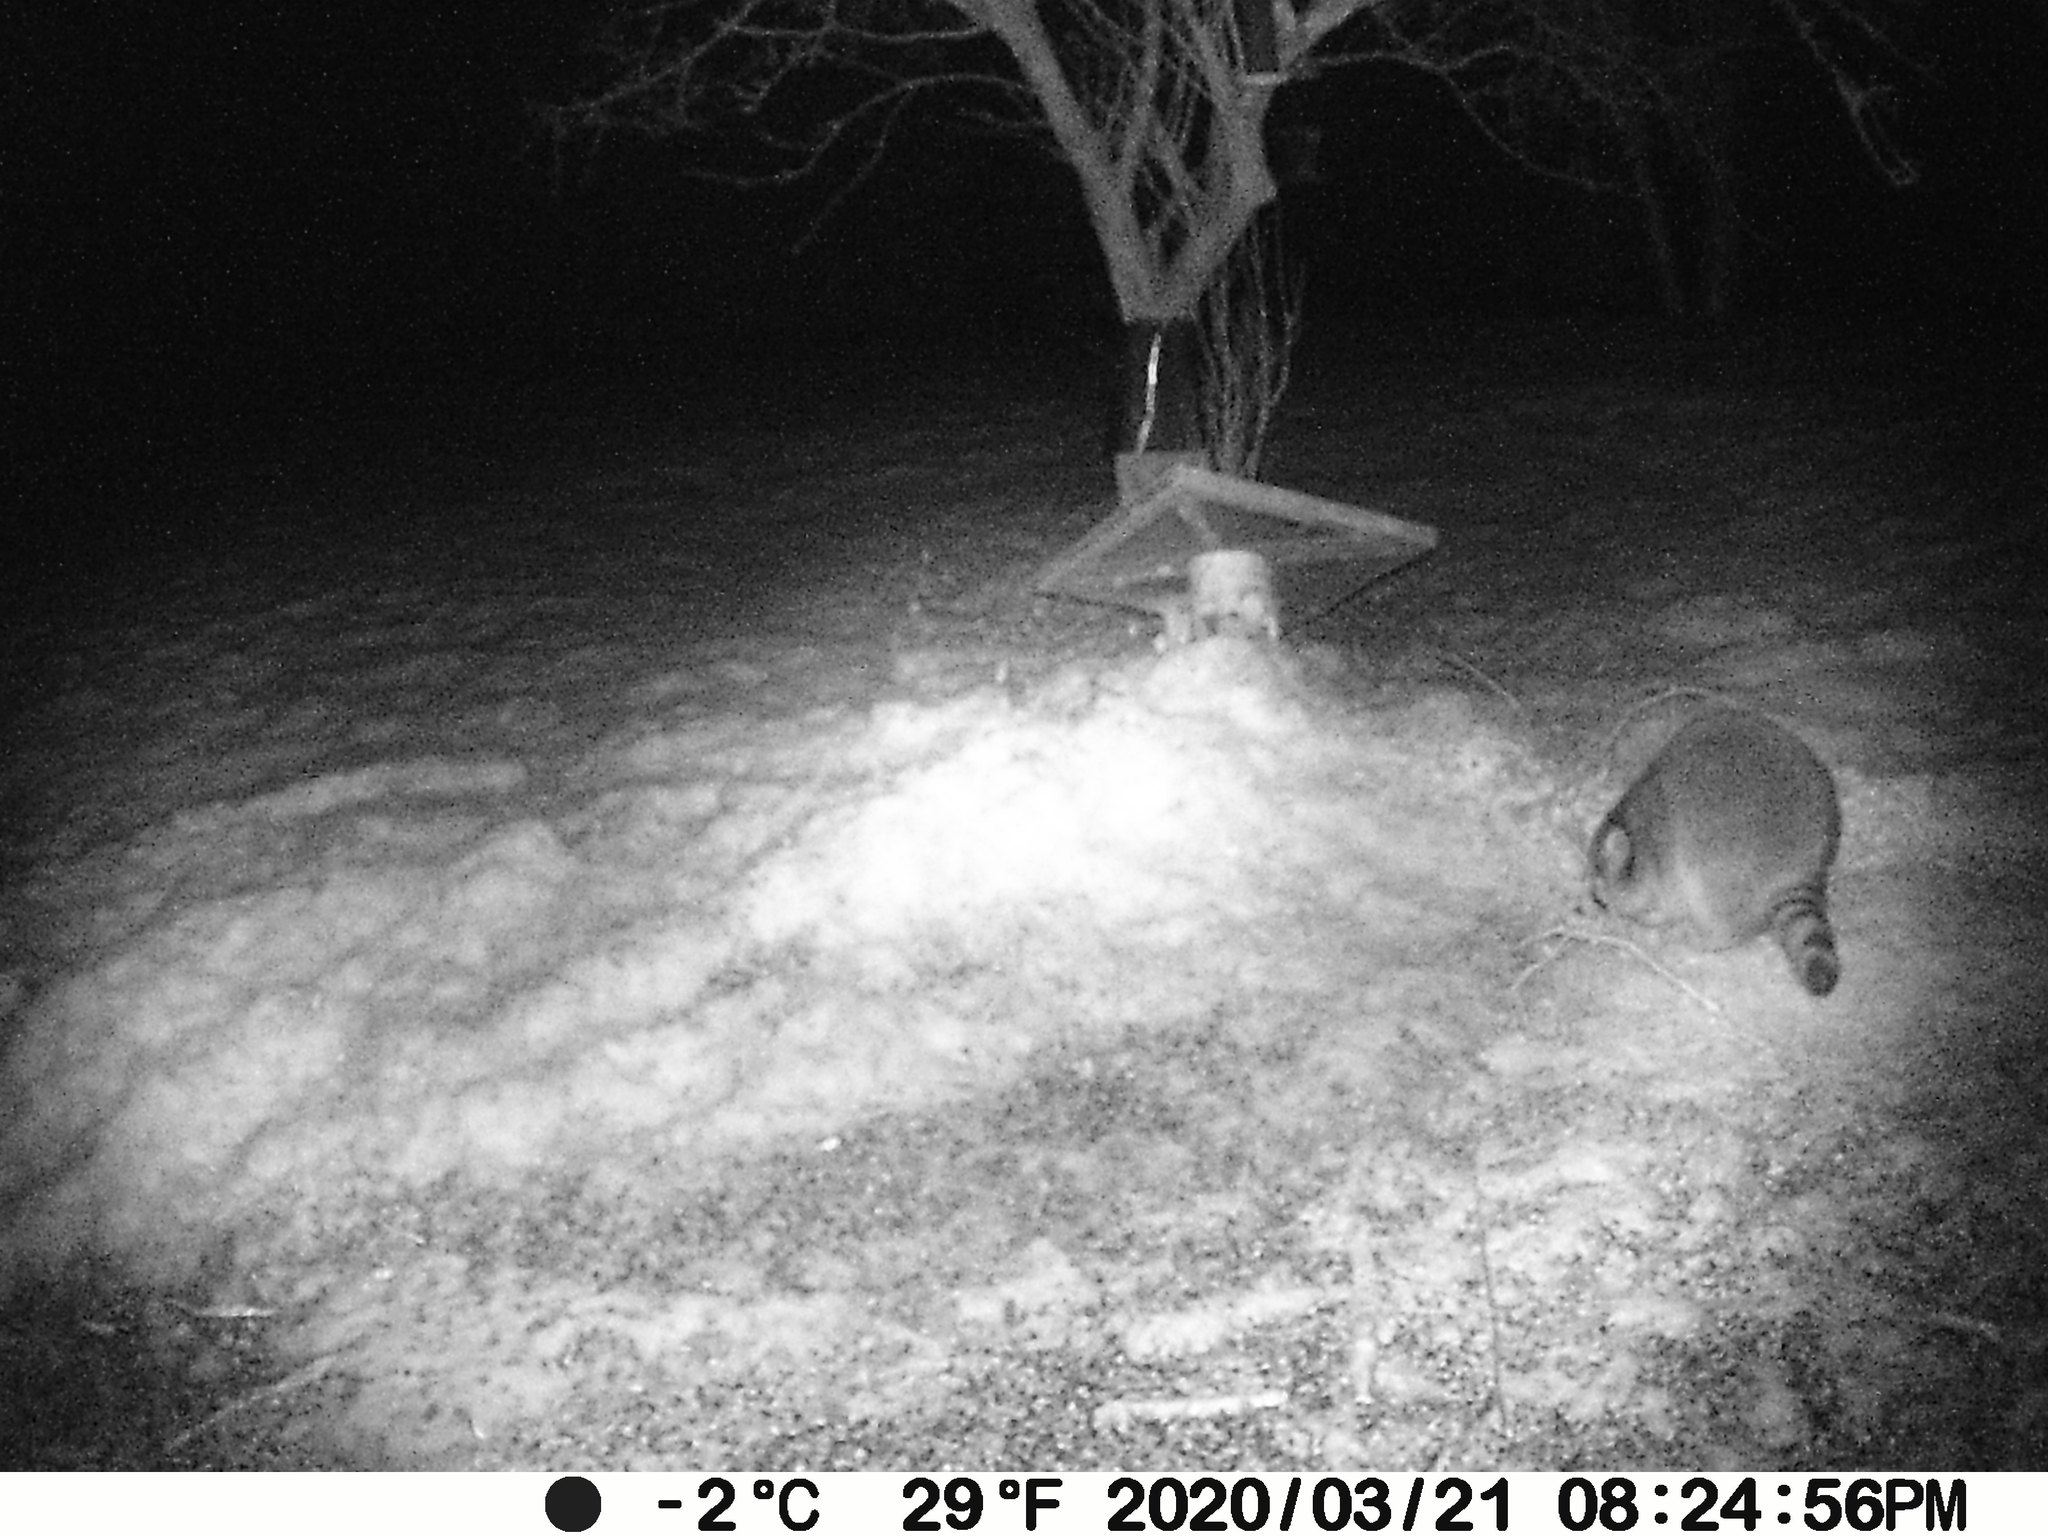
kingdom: Animalia
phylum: Chordata
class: Mammalia
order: Carnivora
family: Procyonidae
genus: Procyon
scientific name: Procyon lotor
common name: Raccoon
